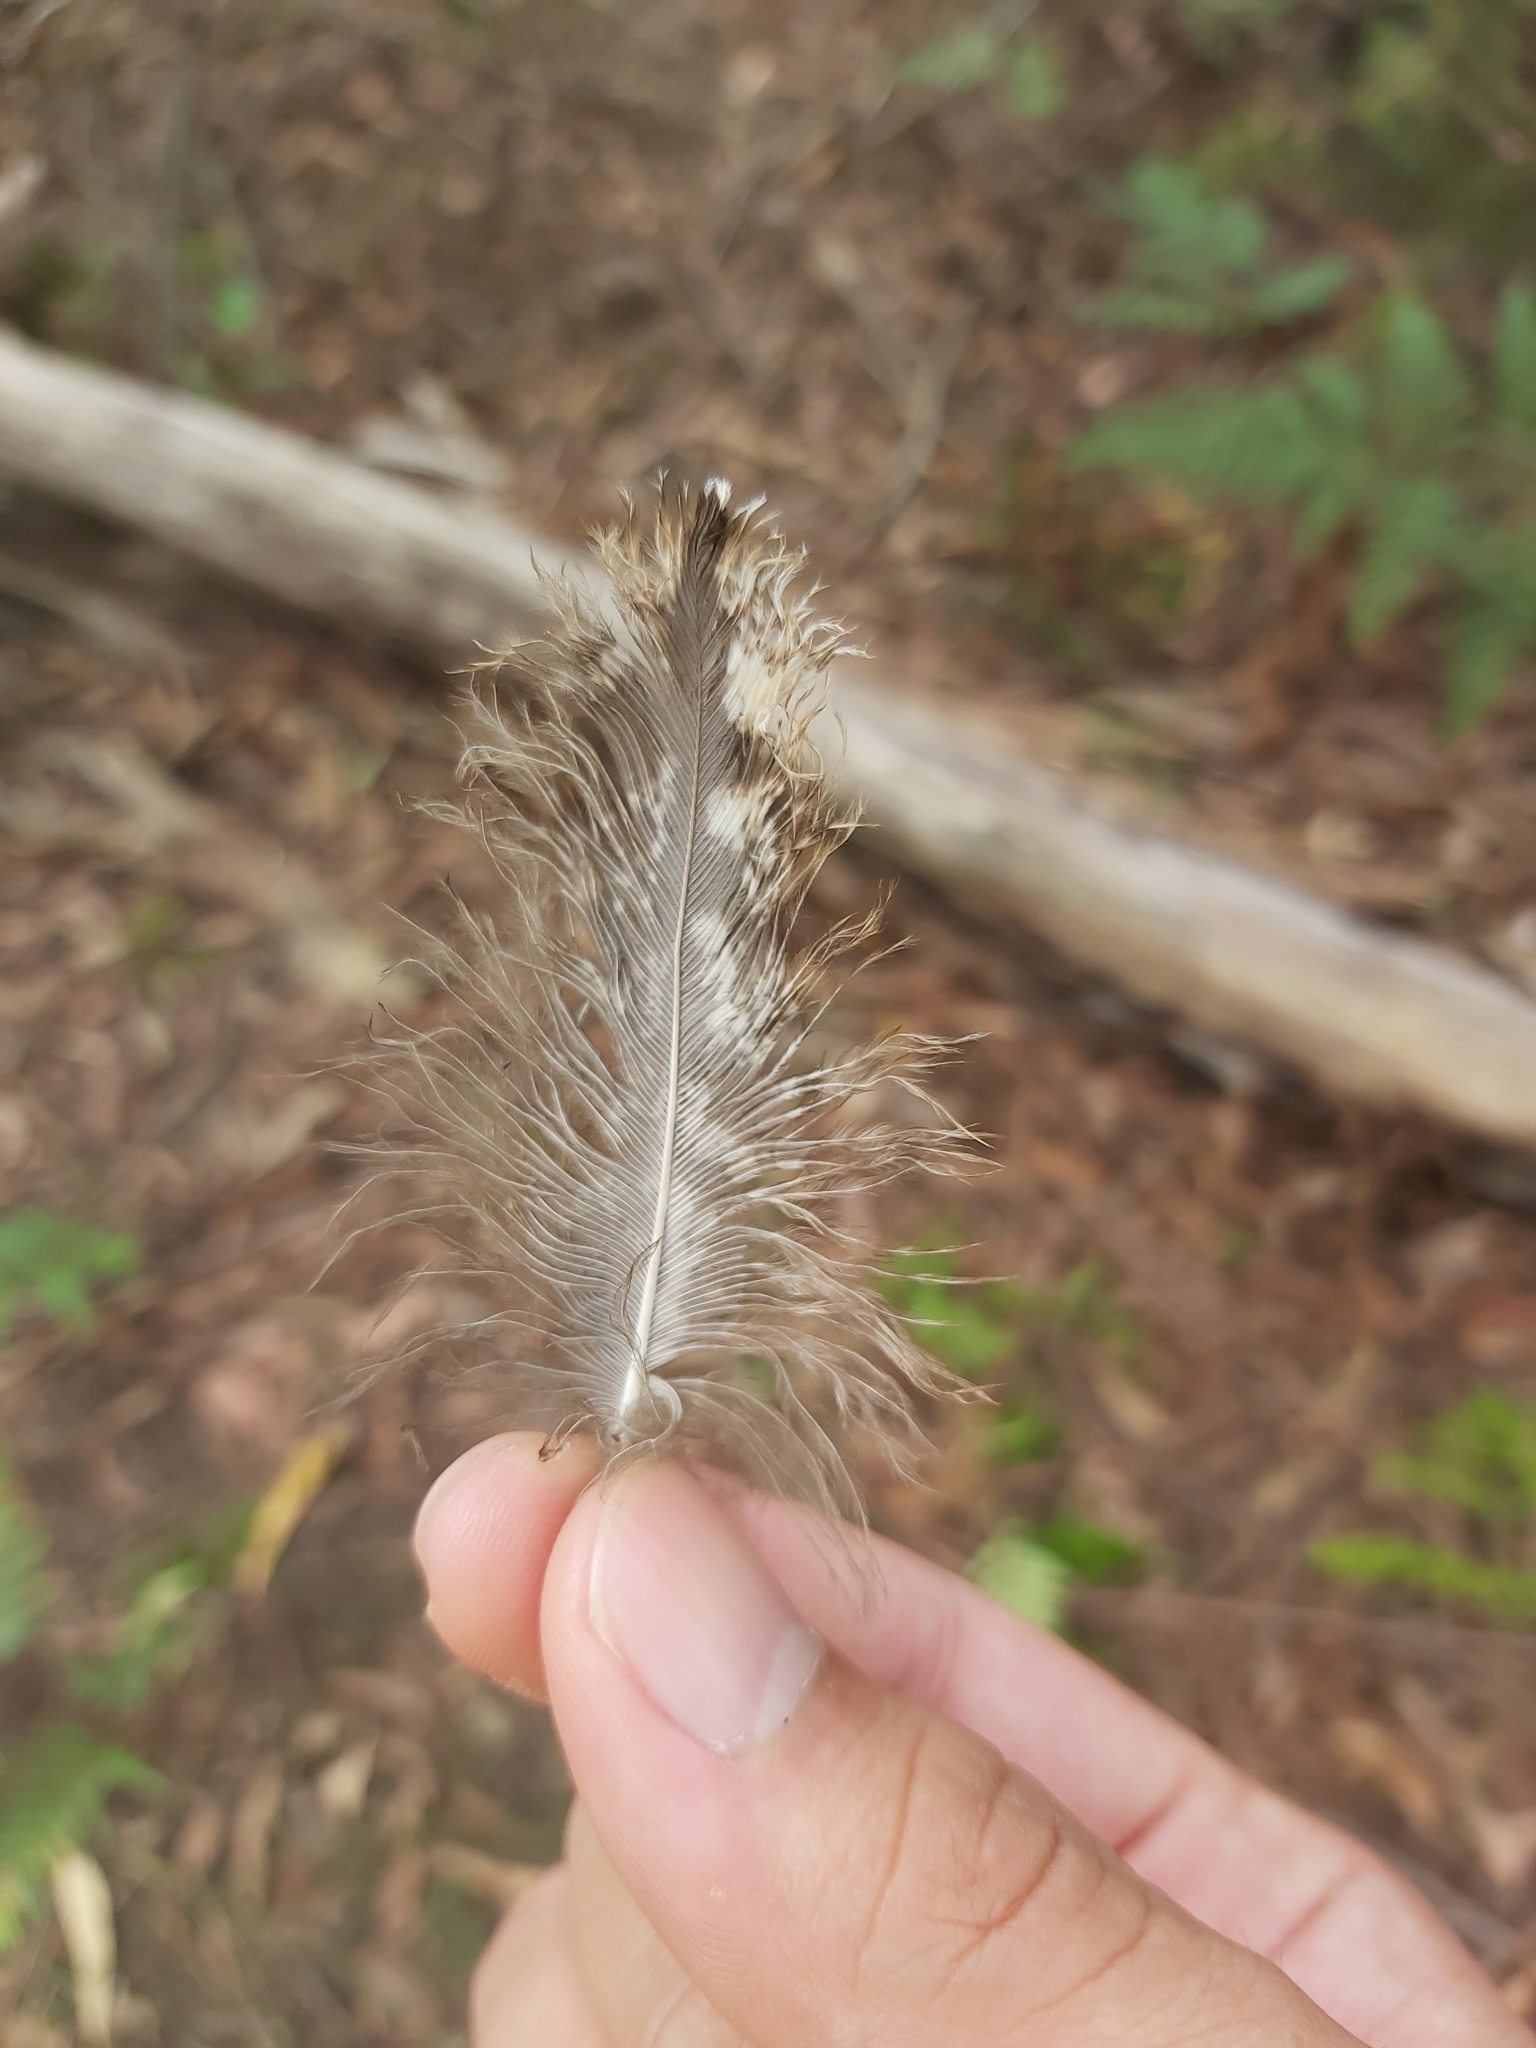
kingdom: Animalia
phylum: Chordata
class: Aves
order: Caprimulgiformes
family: Podargidae
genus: Podargus
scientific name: Podargus strigoides
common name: Tawny frogmouth
